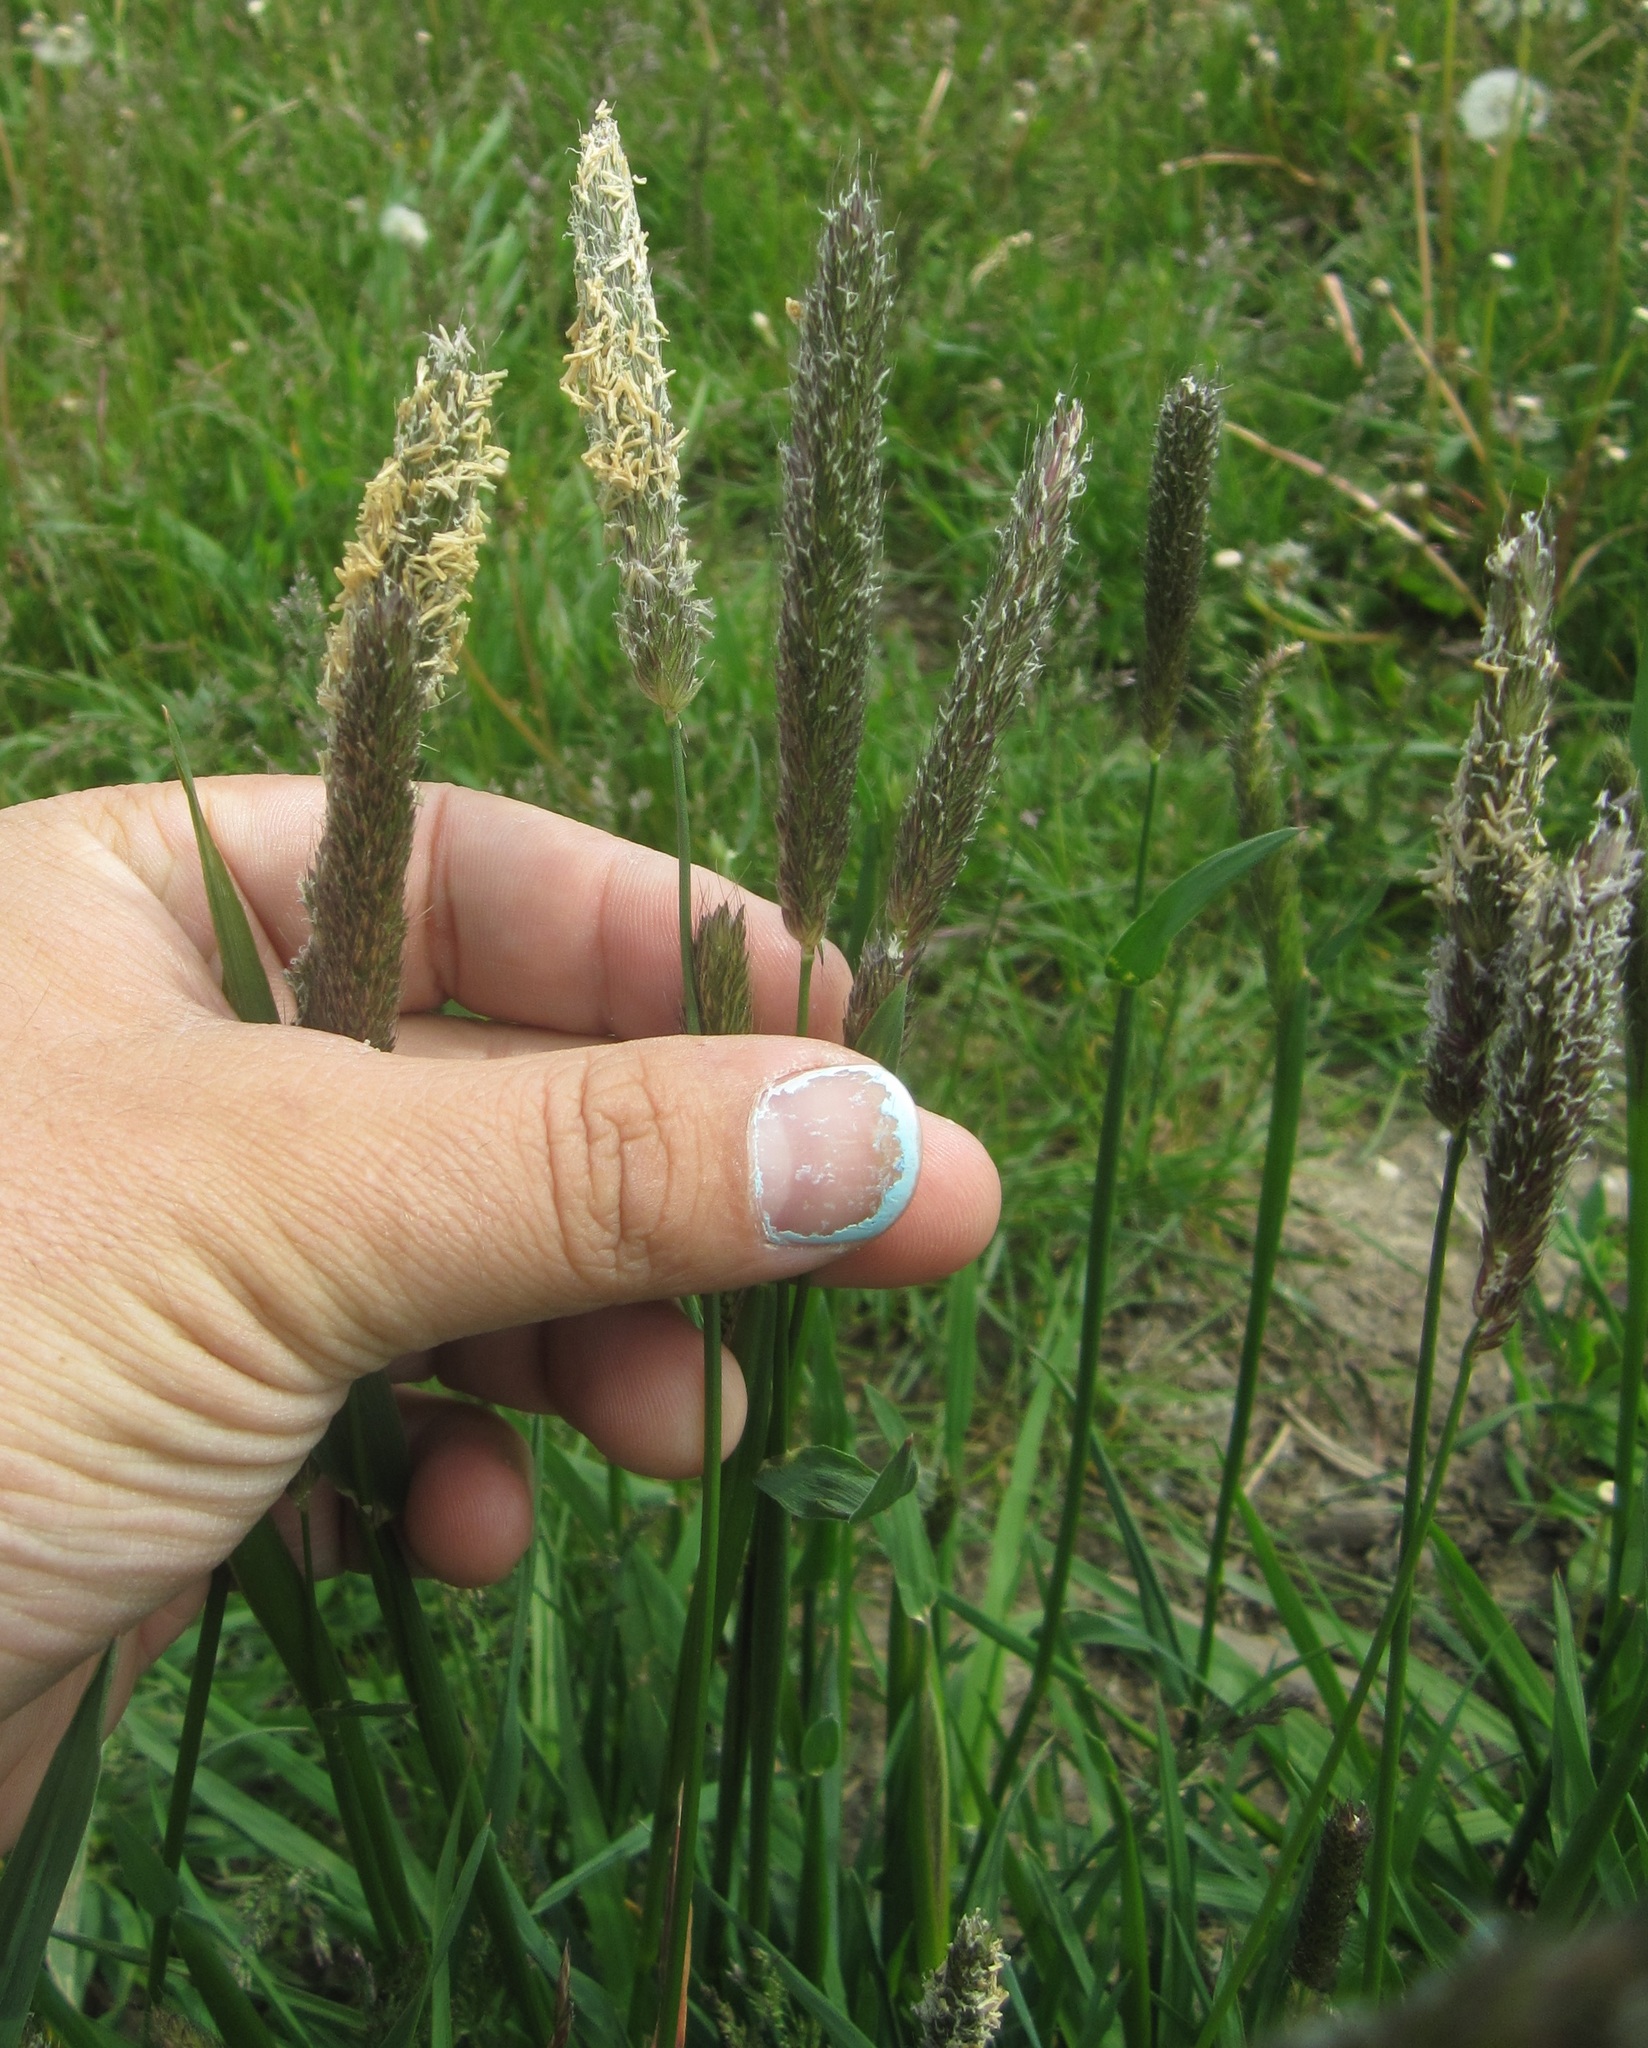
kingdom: Plantae
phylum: Tracheophyta
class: Liliopsida
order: Poales
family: Poaceae
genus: Alopecurus
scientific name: Alopecurus pratensis
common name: Meadow foxtail
